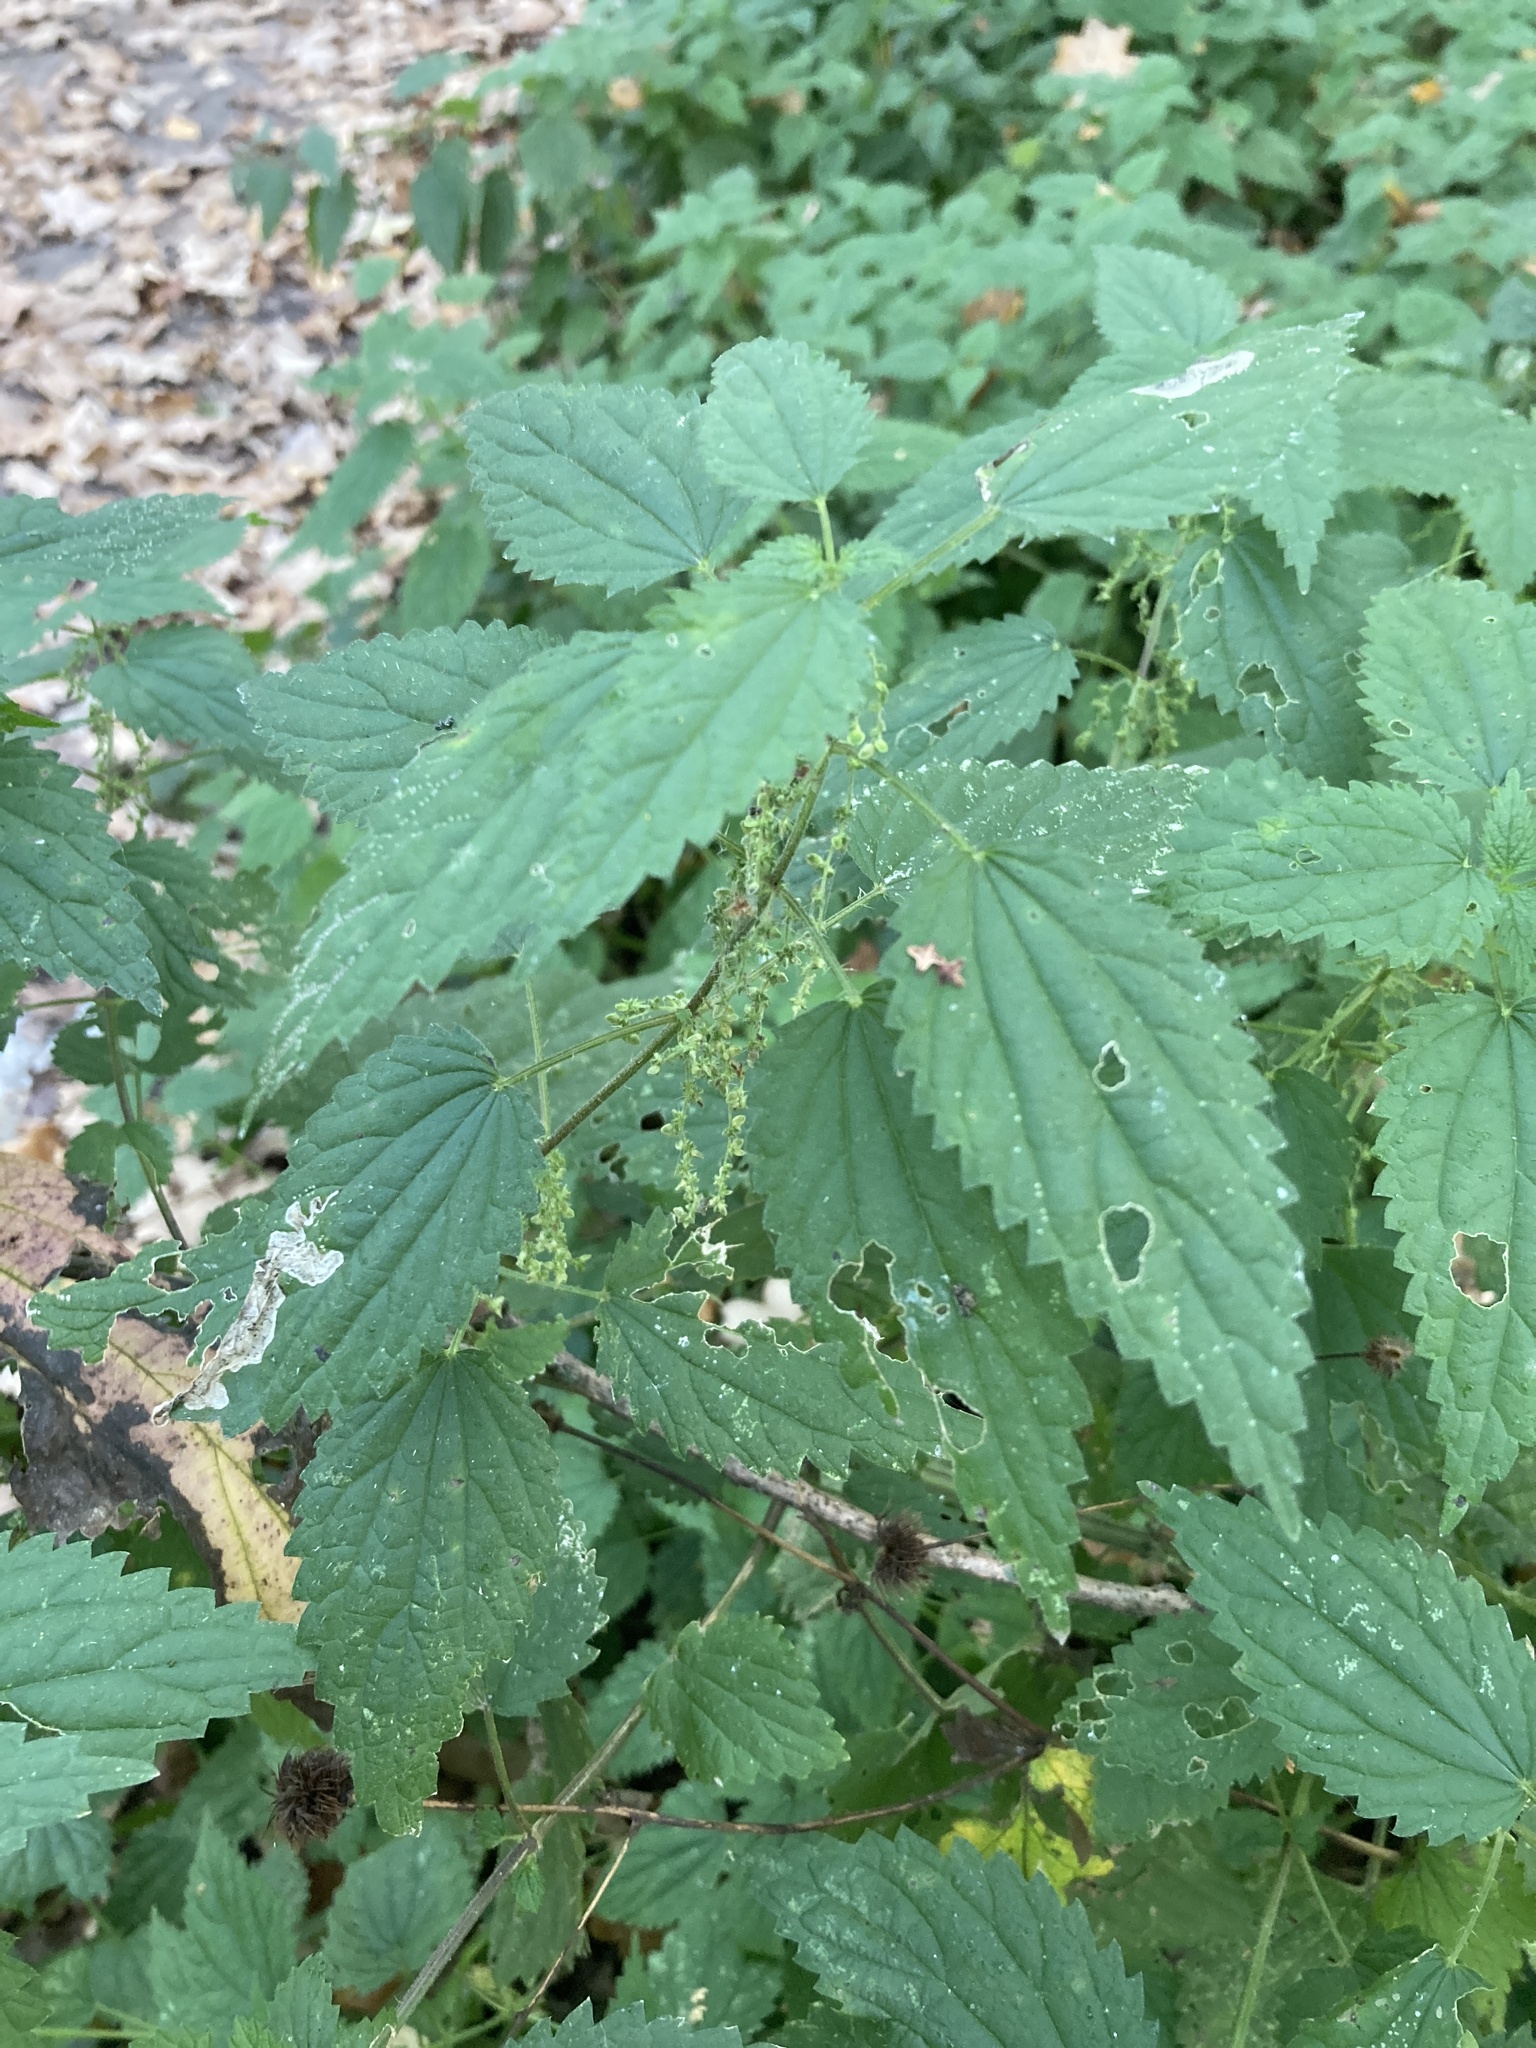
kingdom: Plantae
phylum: Tracheophyta
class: Magnoliopsida
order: Rosales
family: Urticaceae
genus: Urtica
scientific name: Urtica dioica
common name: Common nettle
